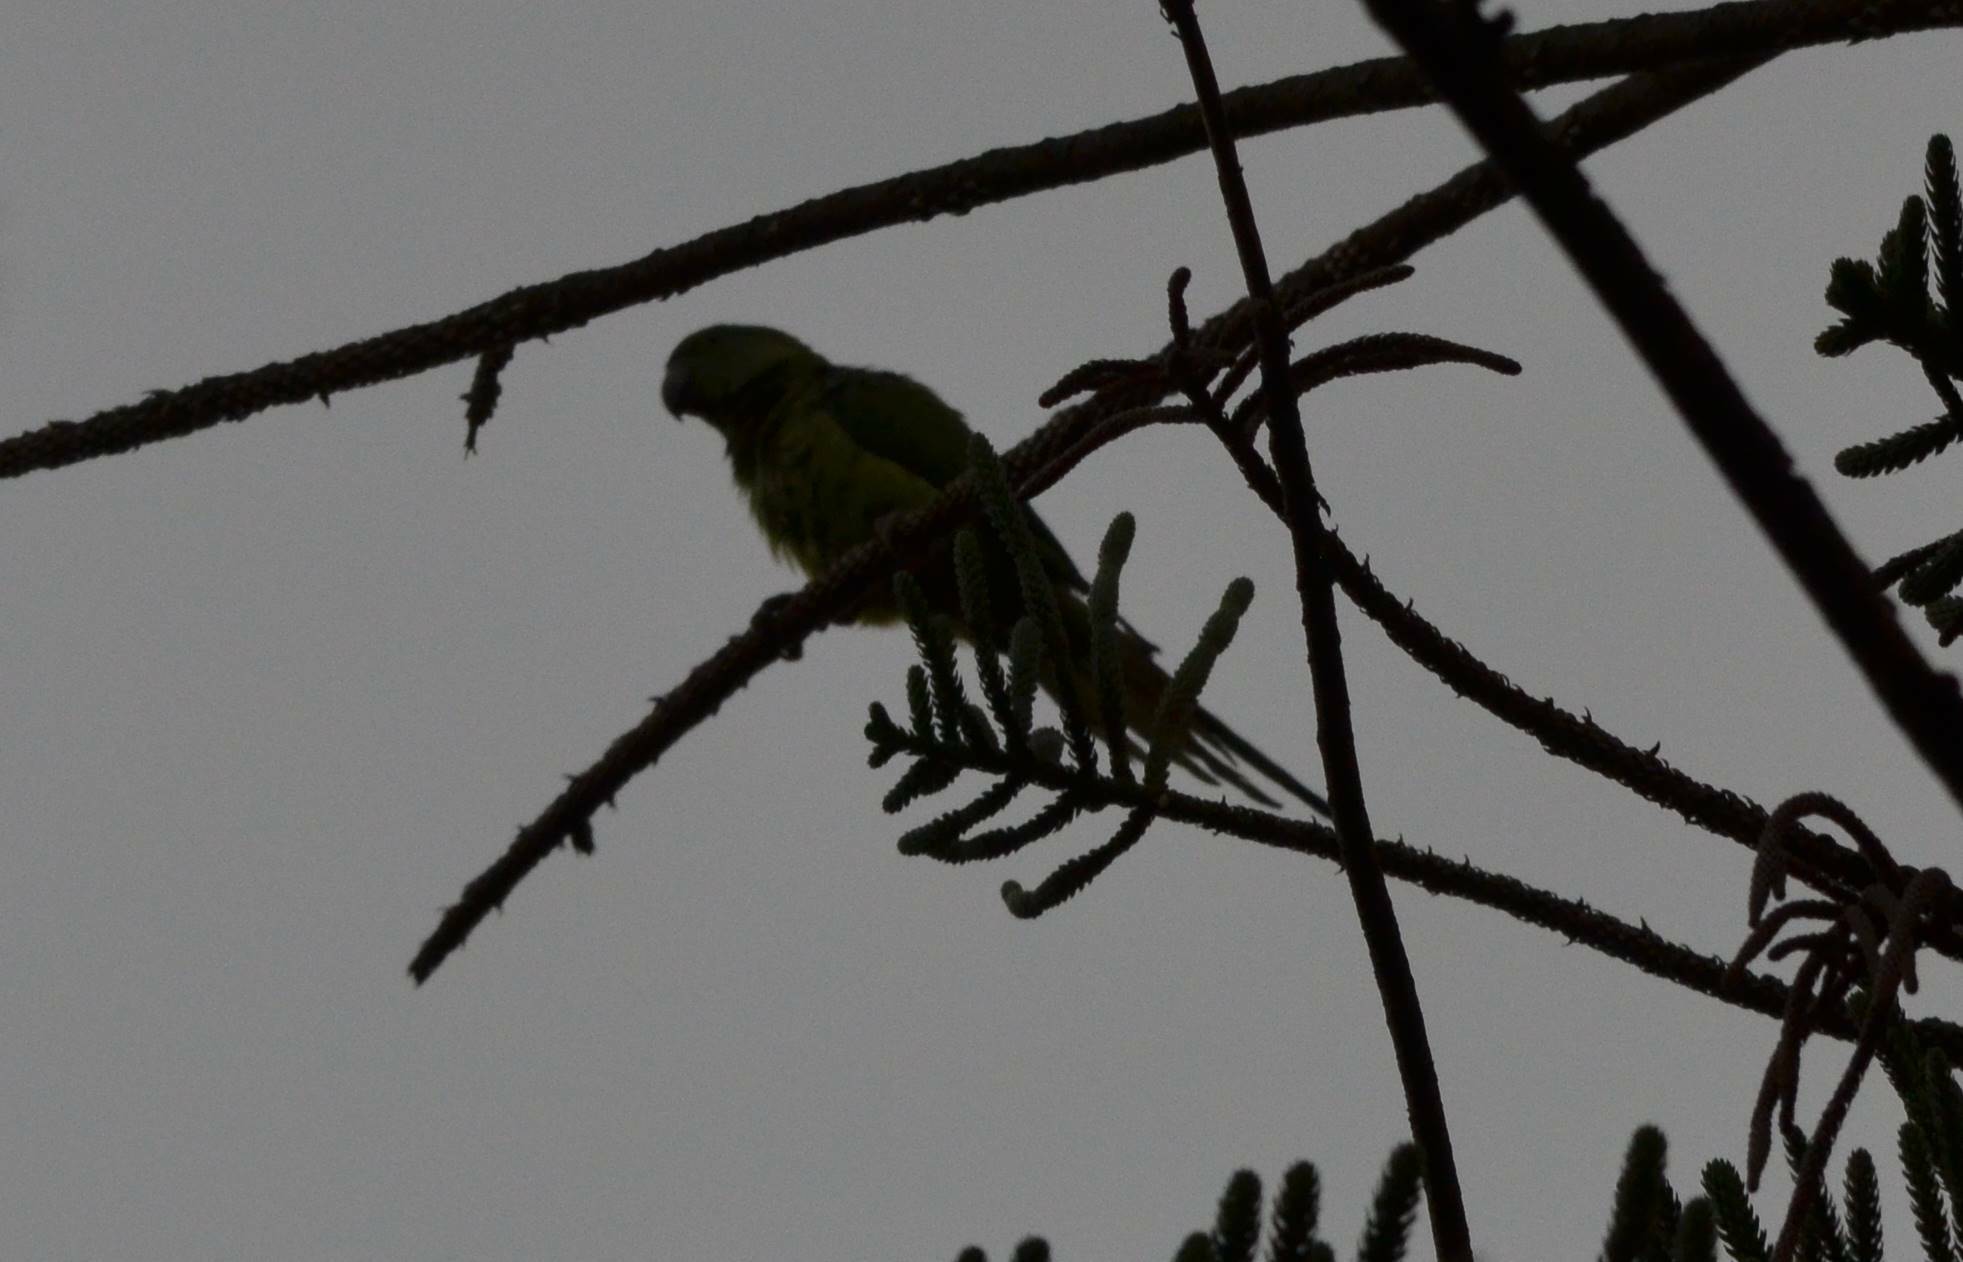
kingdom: Animalia
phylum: Chordata
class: Aves
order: Psittaciformes
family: Psittacidae
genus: Psittacula
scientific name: Psittacula krameri
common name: Rose-ringed parakeet
